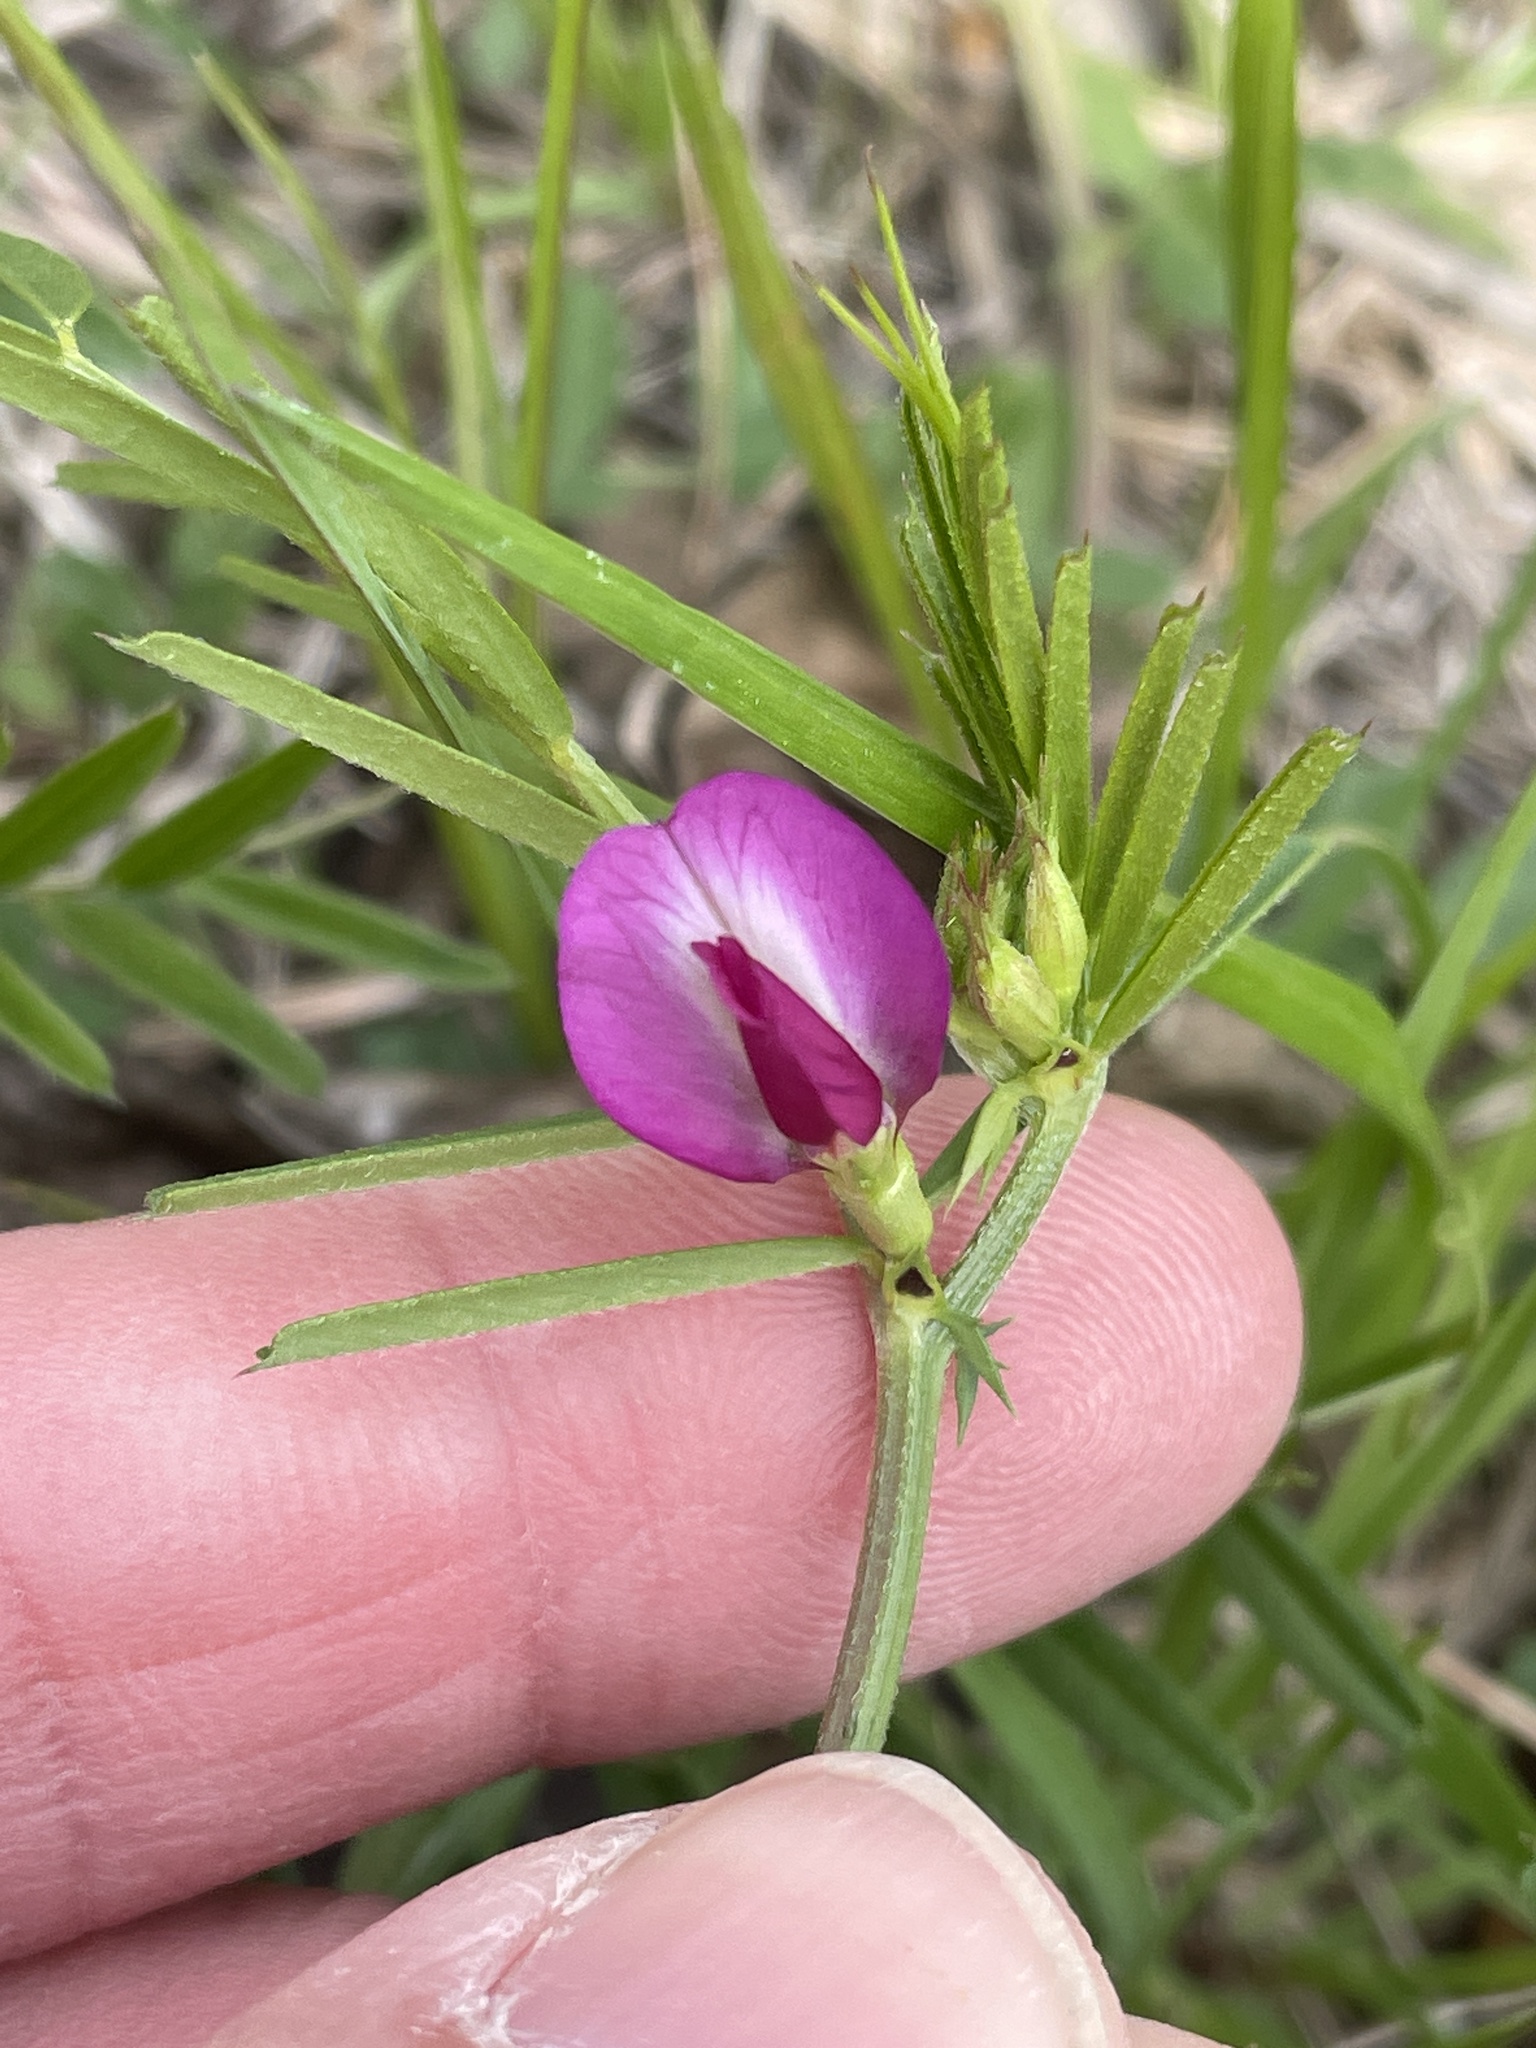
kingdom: Plantae
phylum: Tracheophyta
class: Magnoliopsida
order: Fabales
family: Fabaceae
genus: Vicia
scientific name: Vicia sativa
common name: Garden vetch
